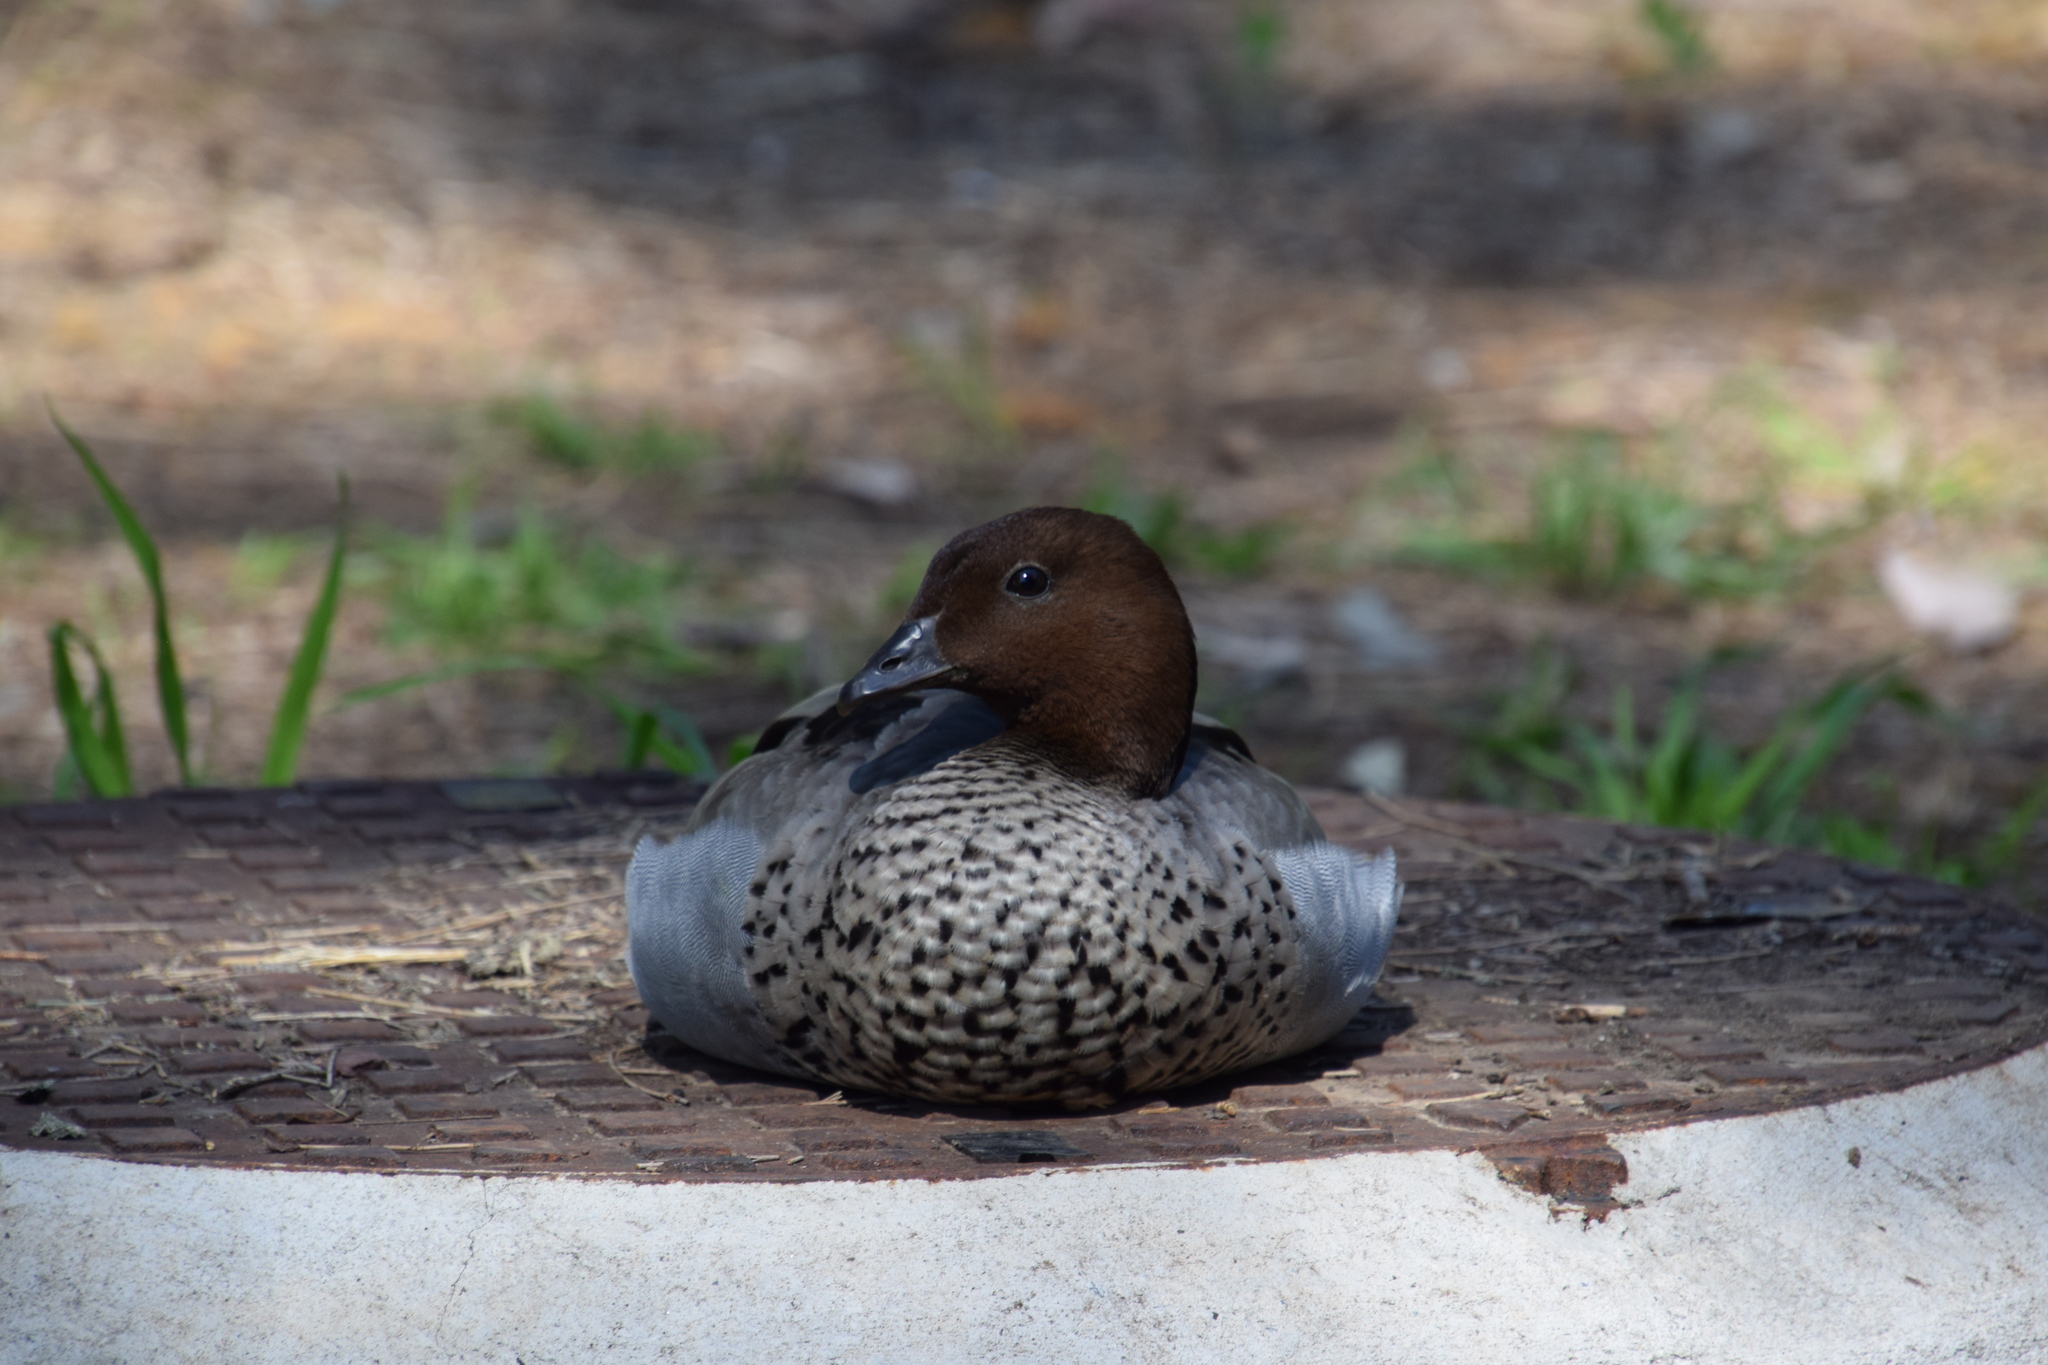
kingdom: Animalia
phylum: Chordata
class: Aves
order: Anseriformes
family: Anatidae
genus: Chenonetta
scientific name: Chenonetta jubata
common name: Maned duck
